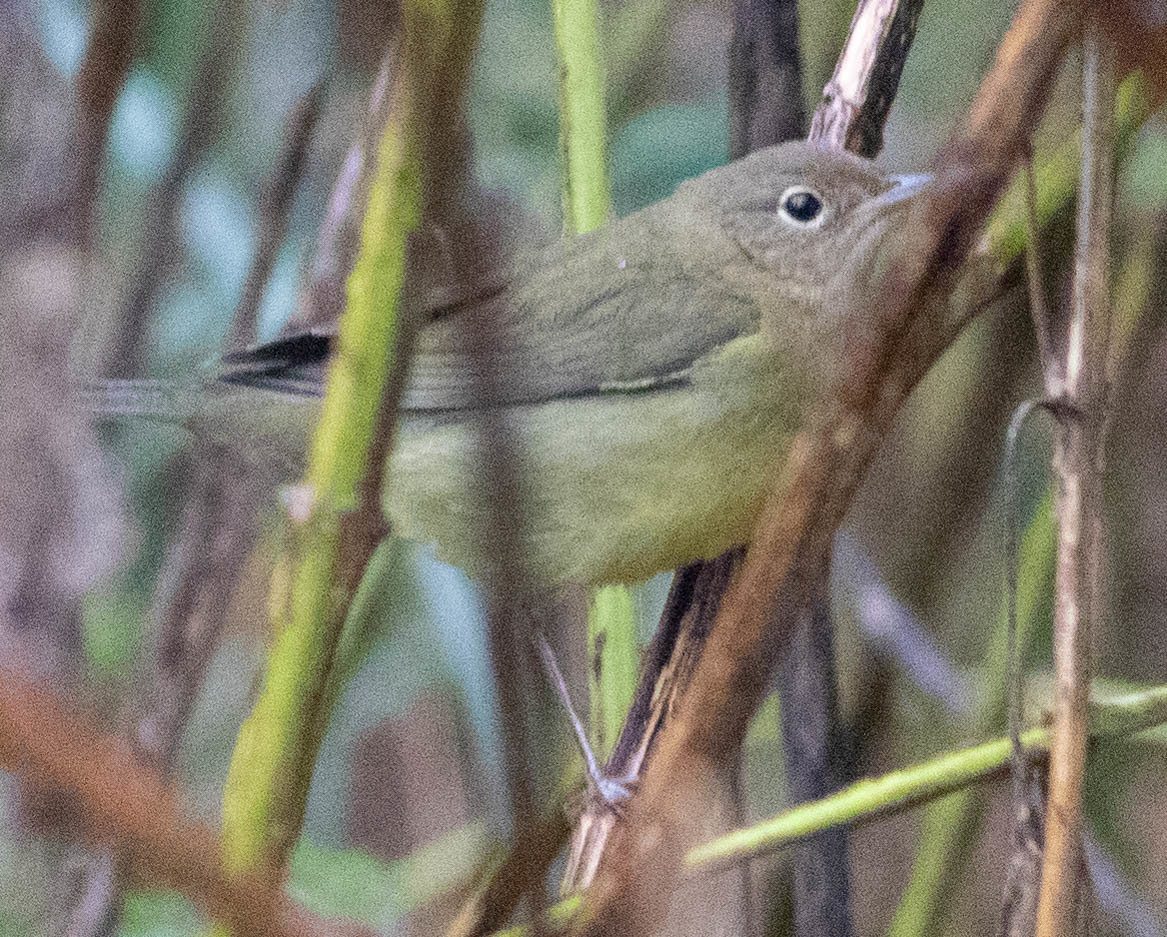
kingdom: Animalia
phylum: Chordata
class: Aves
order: Passeriformes
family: Parulidae
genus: Oporornis
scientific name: Oporornis agilis
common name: Connecticut warbler
